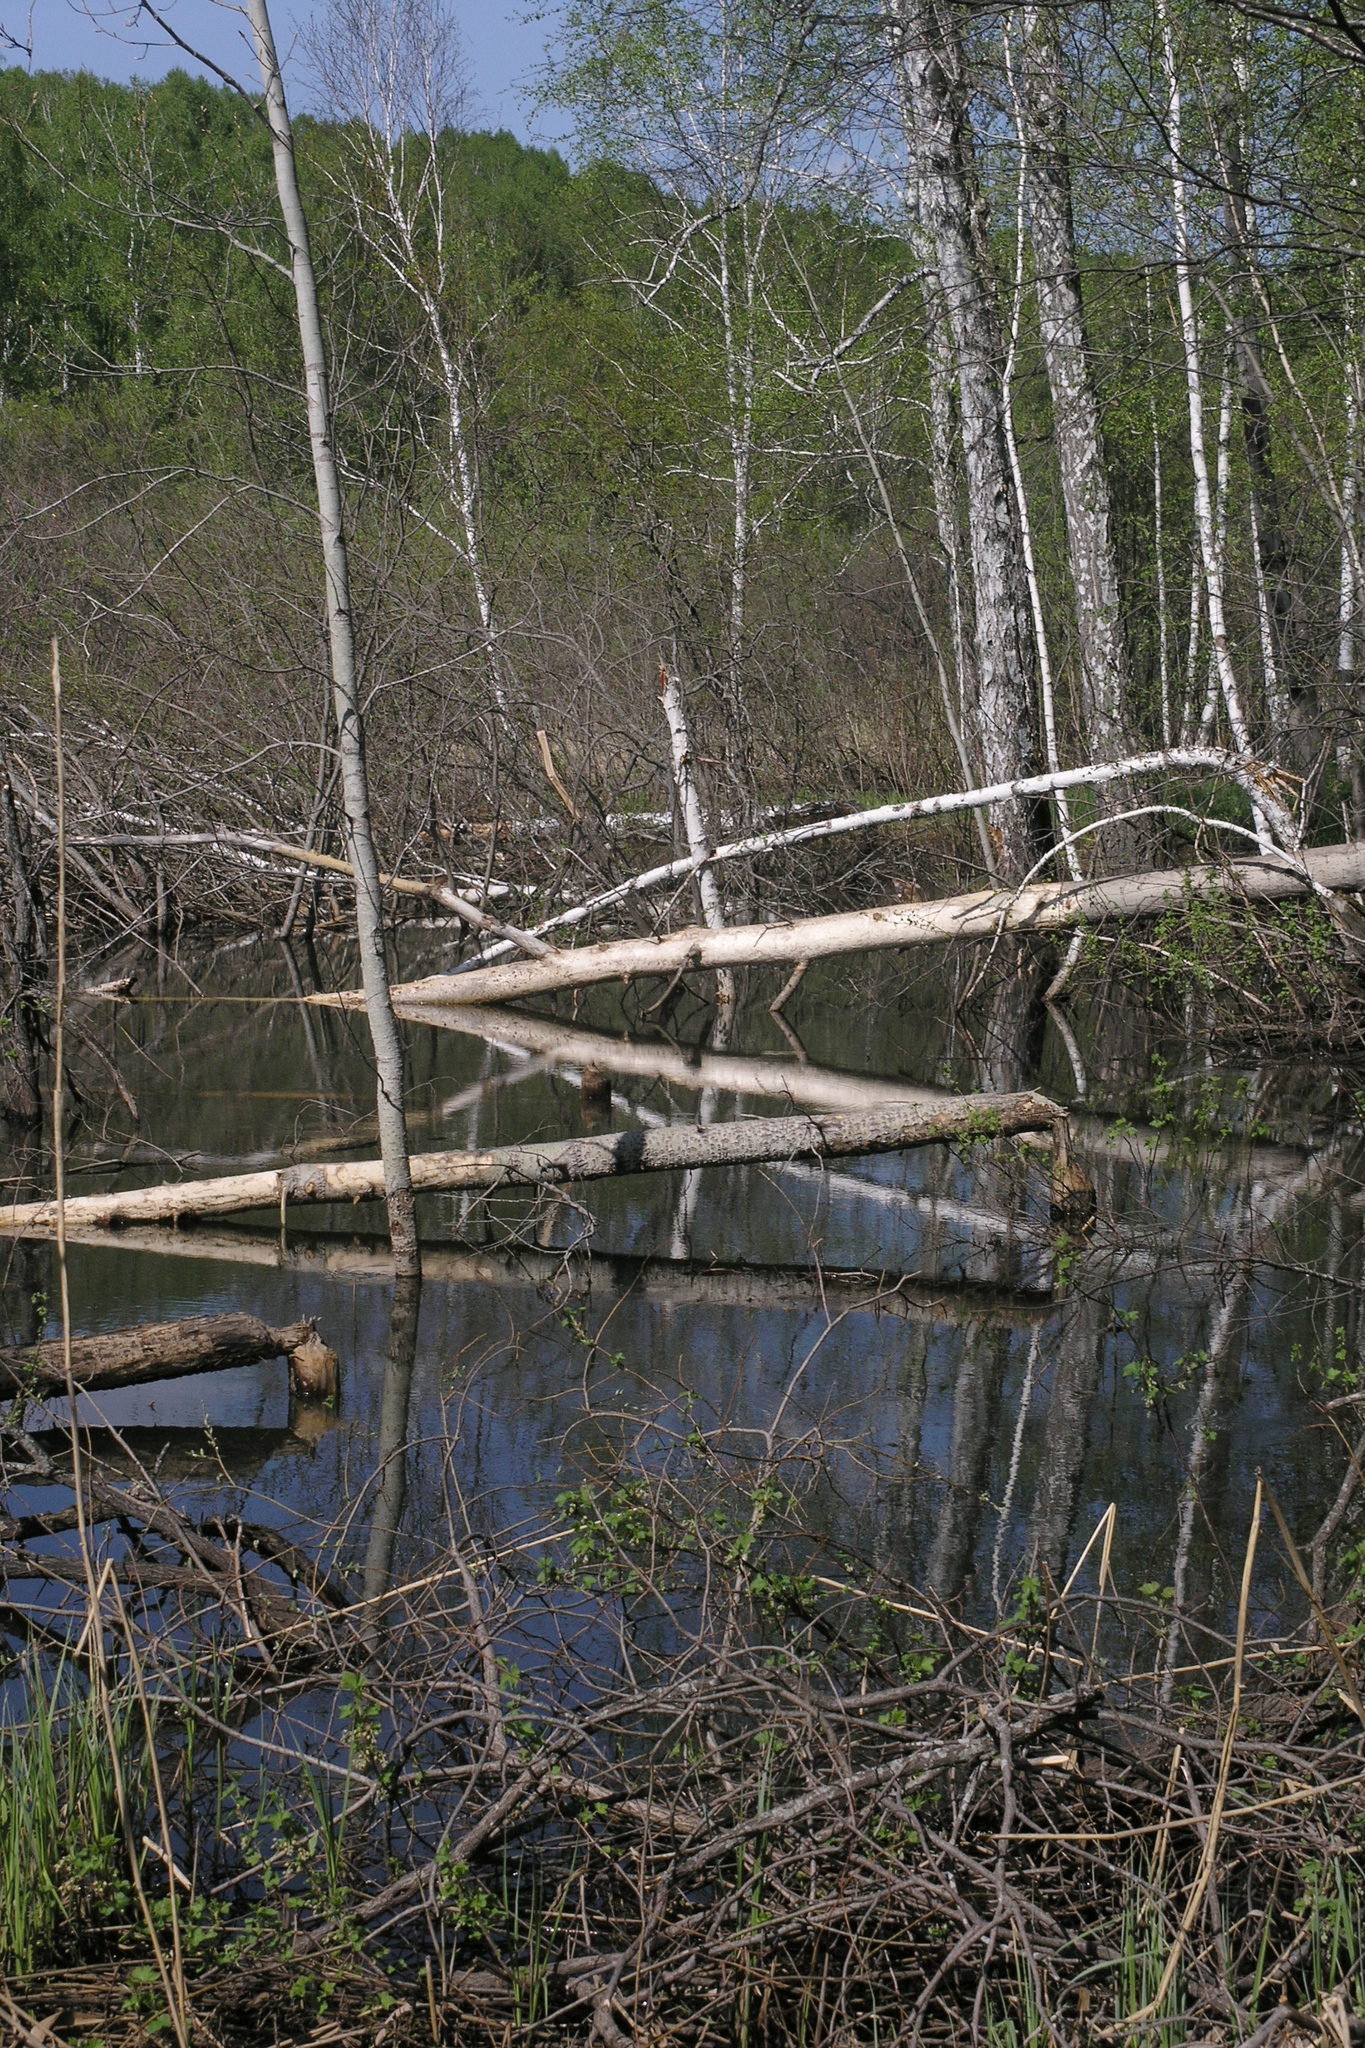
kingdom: Animalia
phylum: Chordata
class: Mammalia
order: Rodentia
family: Castoridae
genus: Castor
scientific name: Castor fiber
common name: Eurasian beaver
